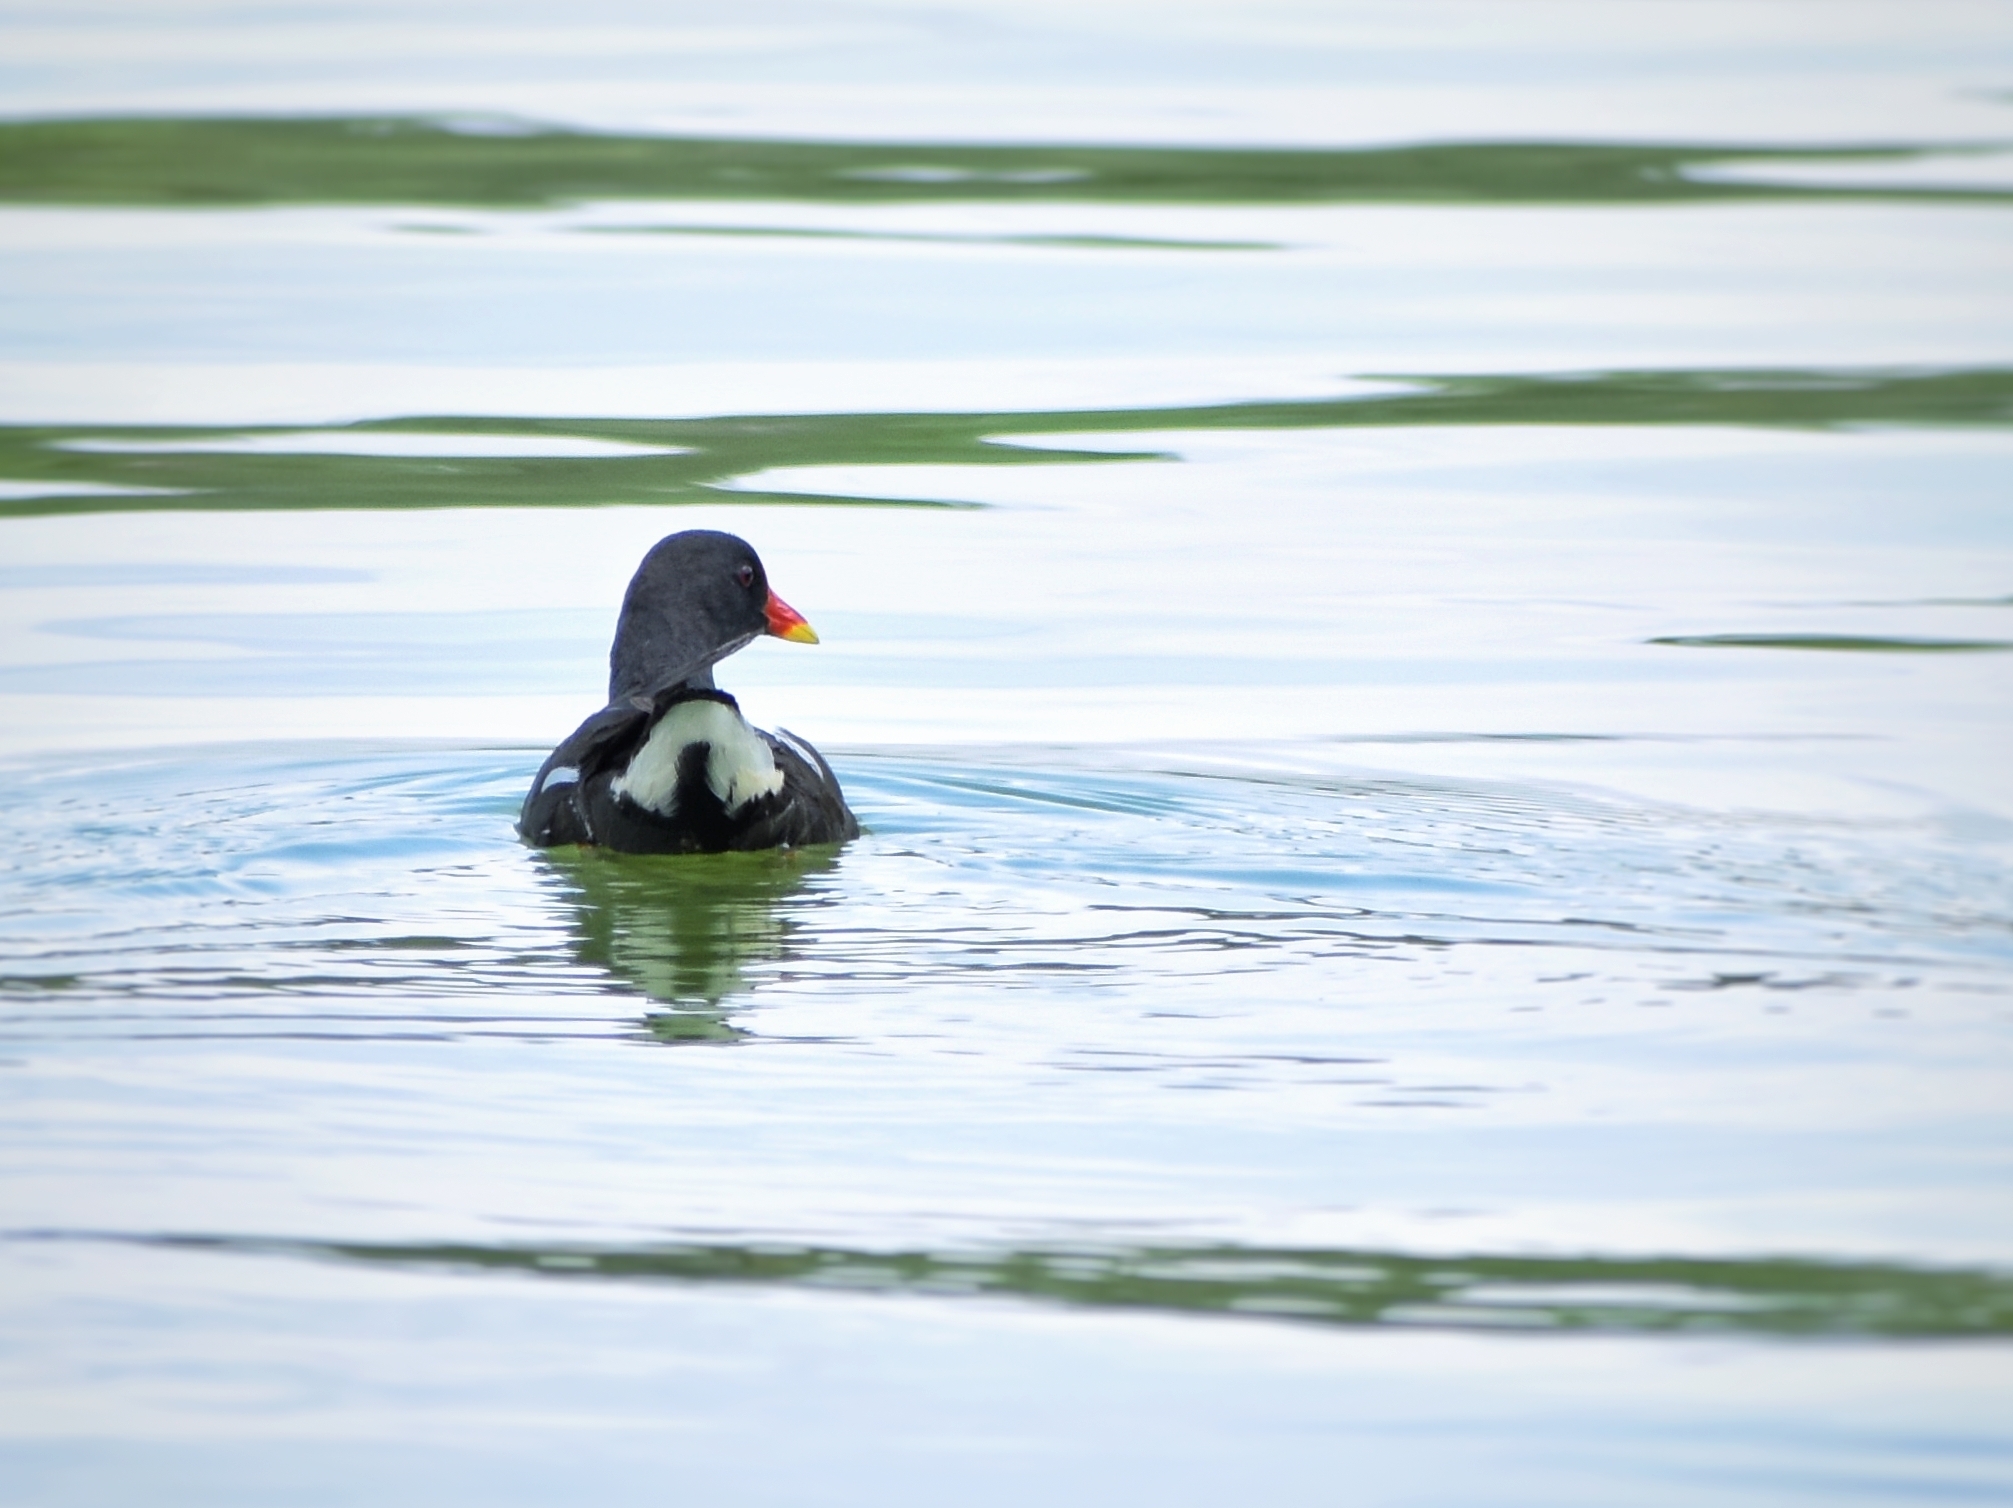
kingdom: Animalia
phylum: Chordata
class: Aves
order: Gruiformes
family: Rallidae
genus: Gallinula
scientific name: Gallinula chloropus
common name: Common moorhen
